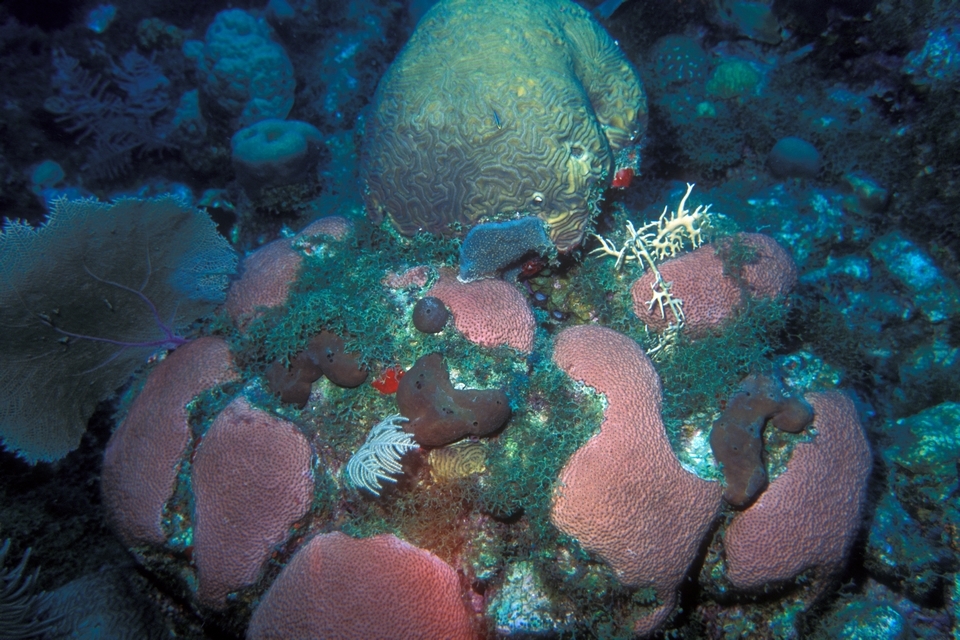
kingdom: Animalia
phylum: Cnidaria
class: Anthozoa
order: Scleractinia
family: Rhizangiidae
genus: Siderastrea
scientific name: Siderastrea siderea
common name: Massive starlet coral
